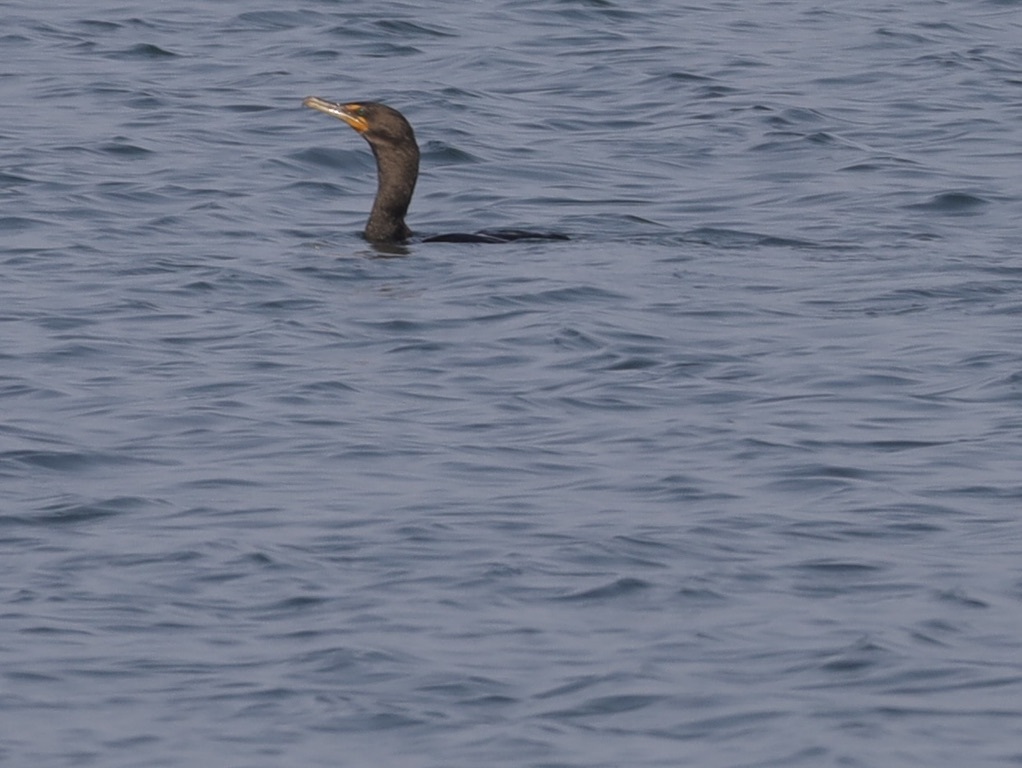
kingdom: Animalia
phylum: Chordata
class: Aves
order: Suliformes
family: Phalacrocoracidae
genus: Phalacrocorax
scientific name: Phalacrocorax auritus
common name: Double-crested cormorant
